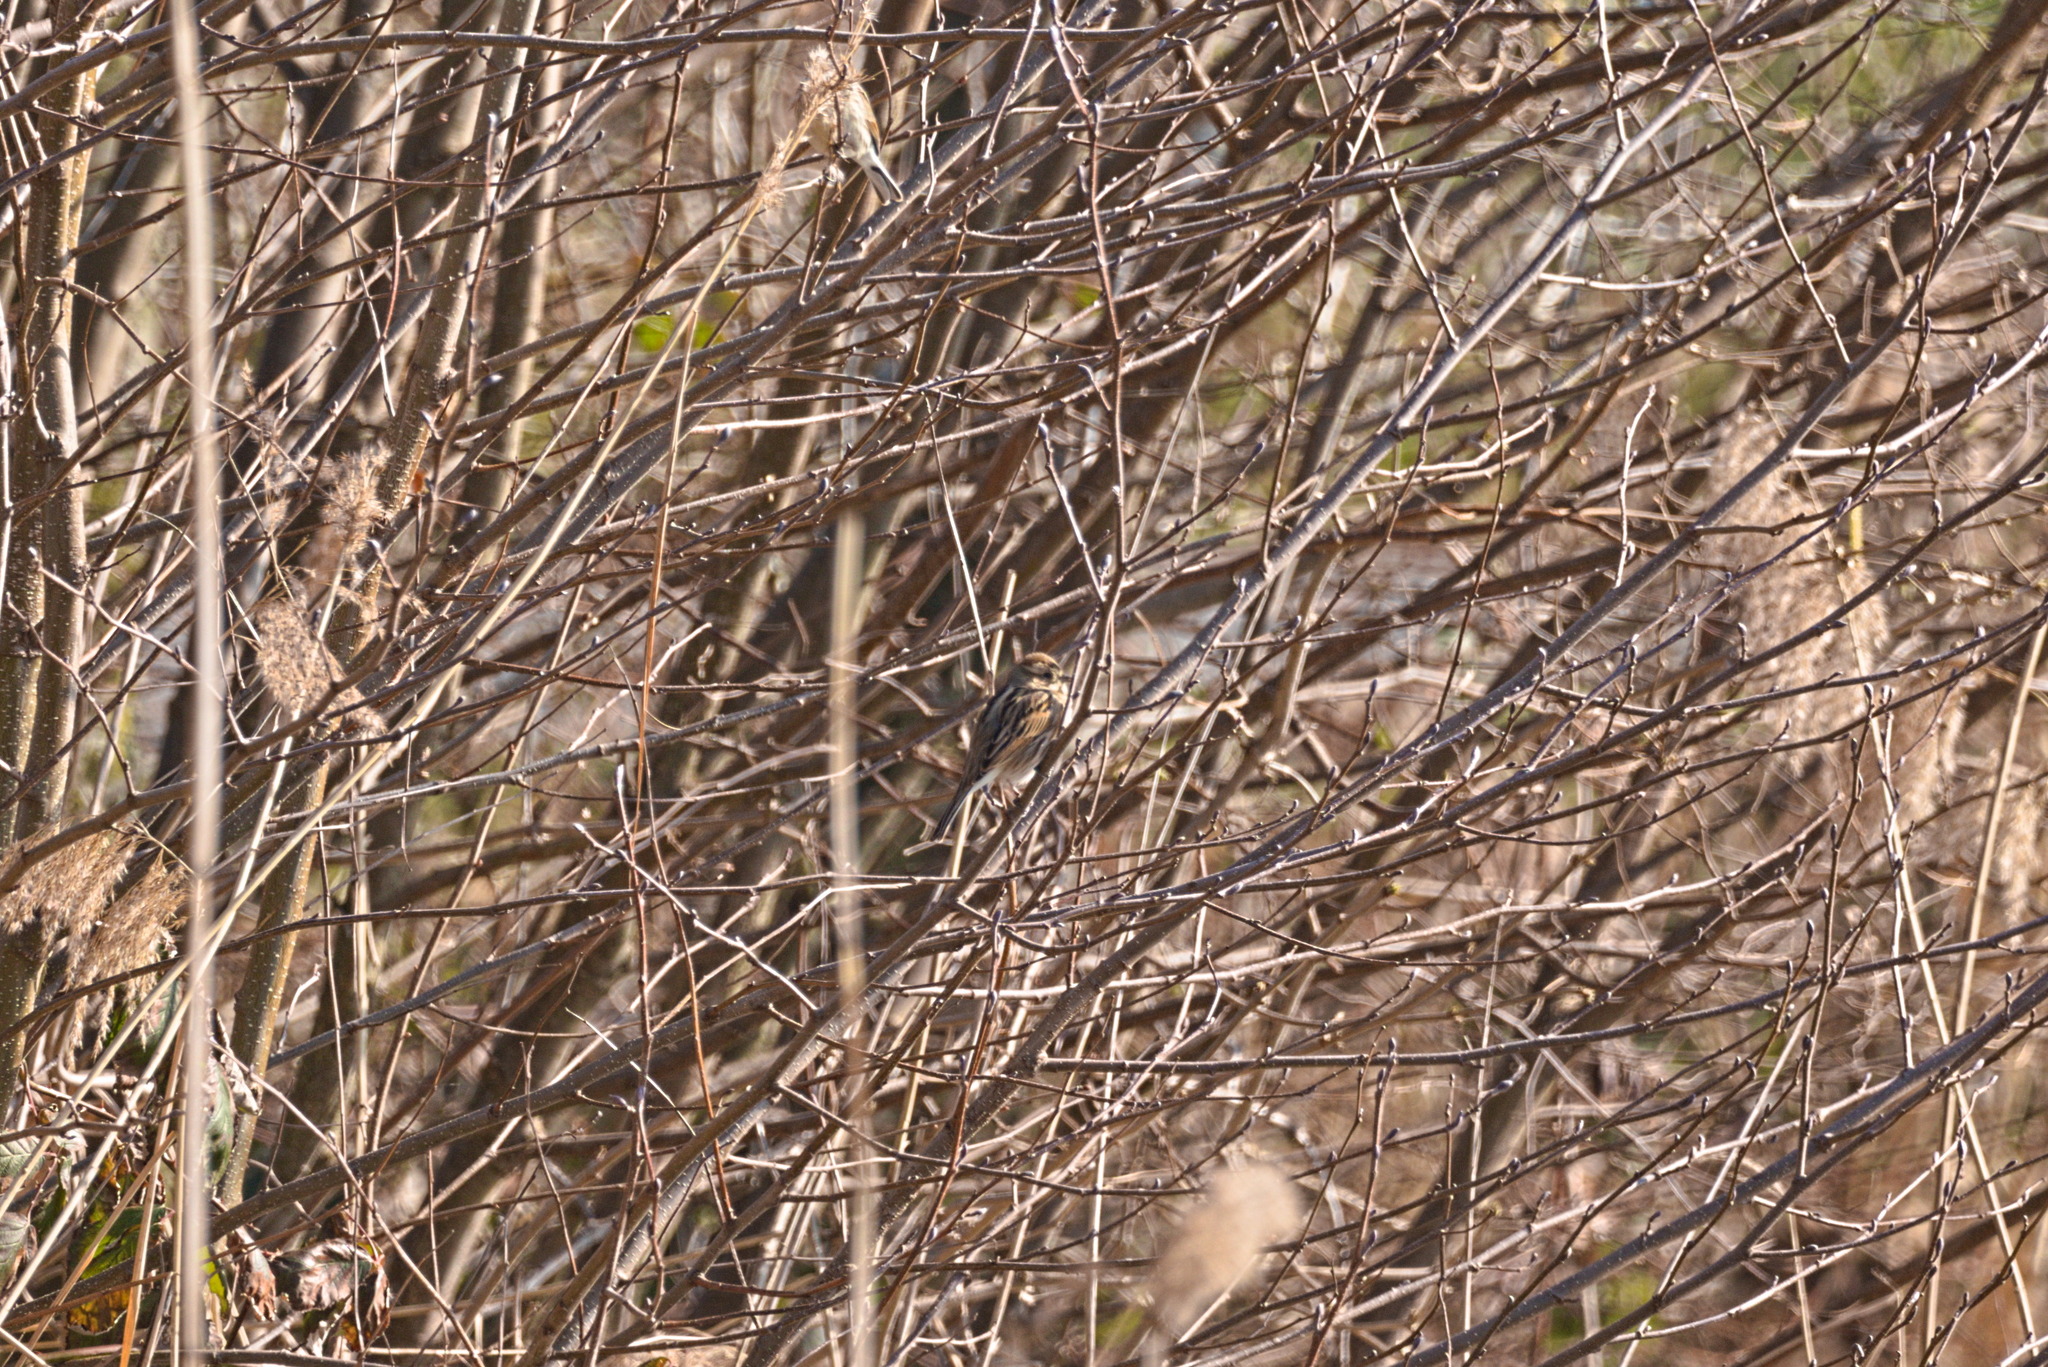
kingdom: Animalia
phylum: Chordata
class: Aves
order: Passeriformes
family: Emberizidae
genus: Emberiza
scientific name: Emberiza schoeniclus
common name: Reed bunting
